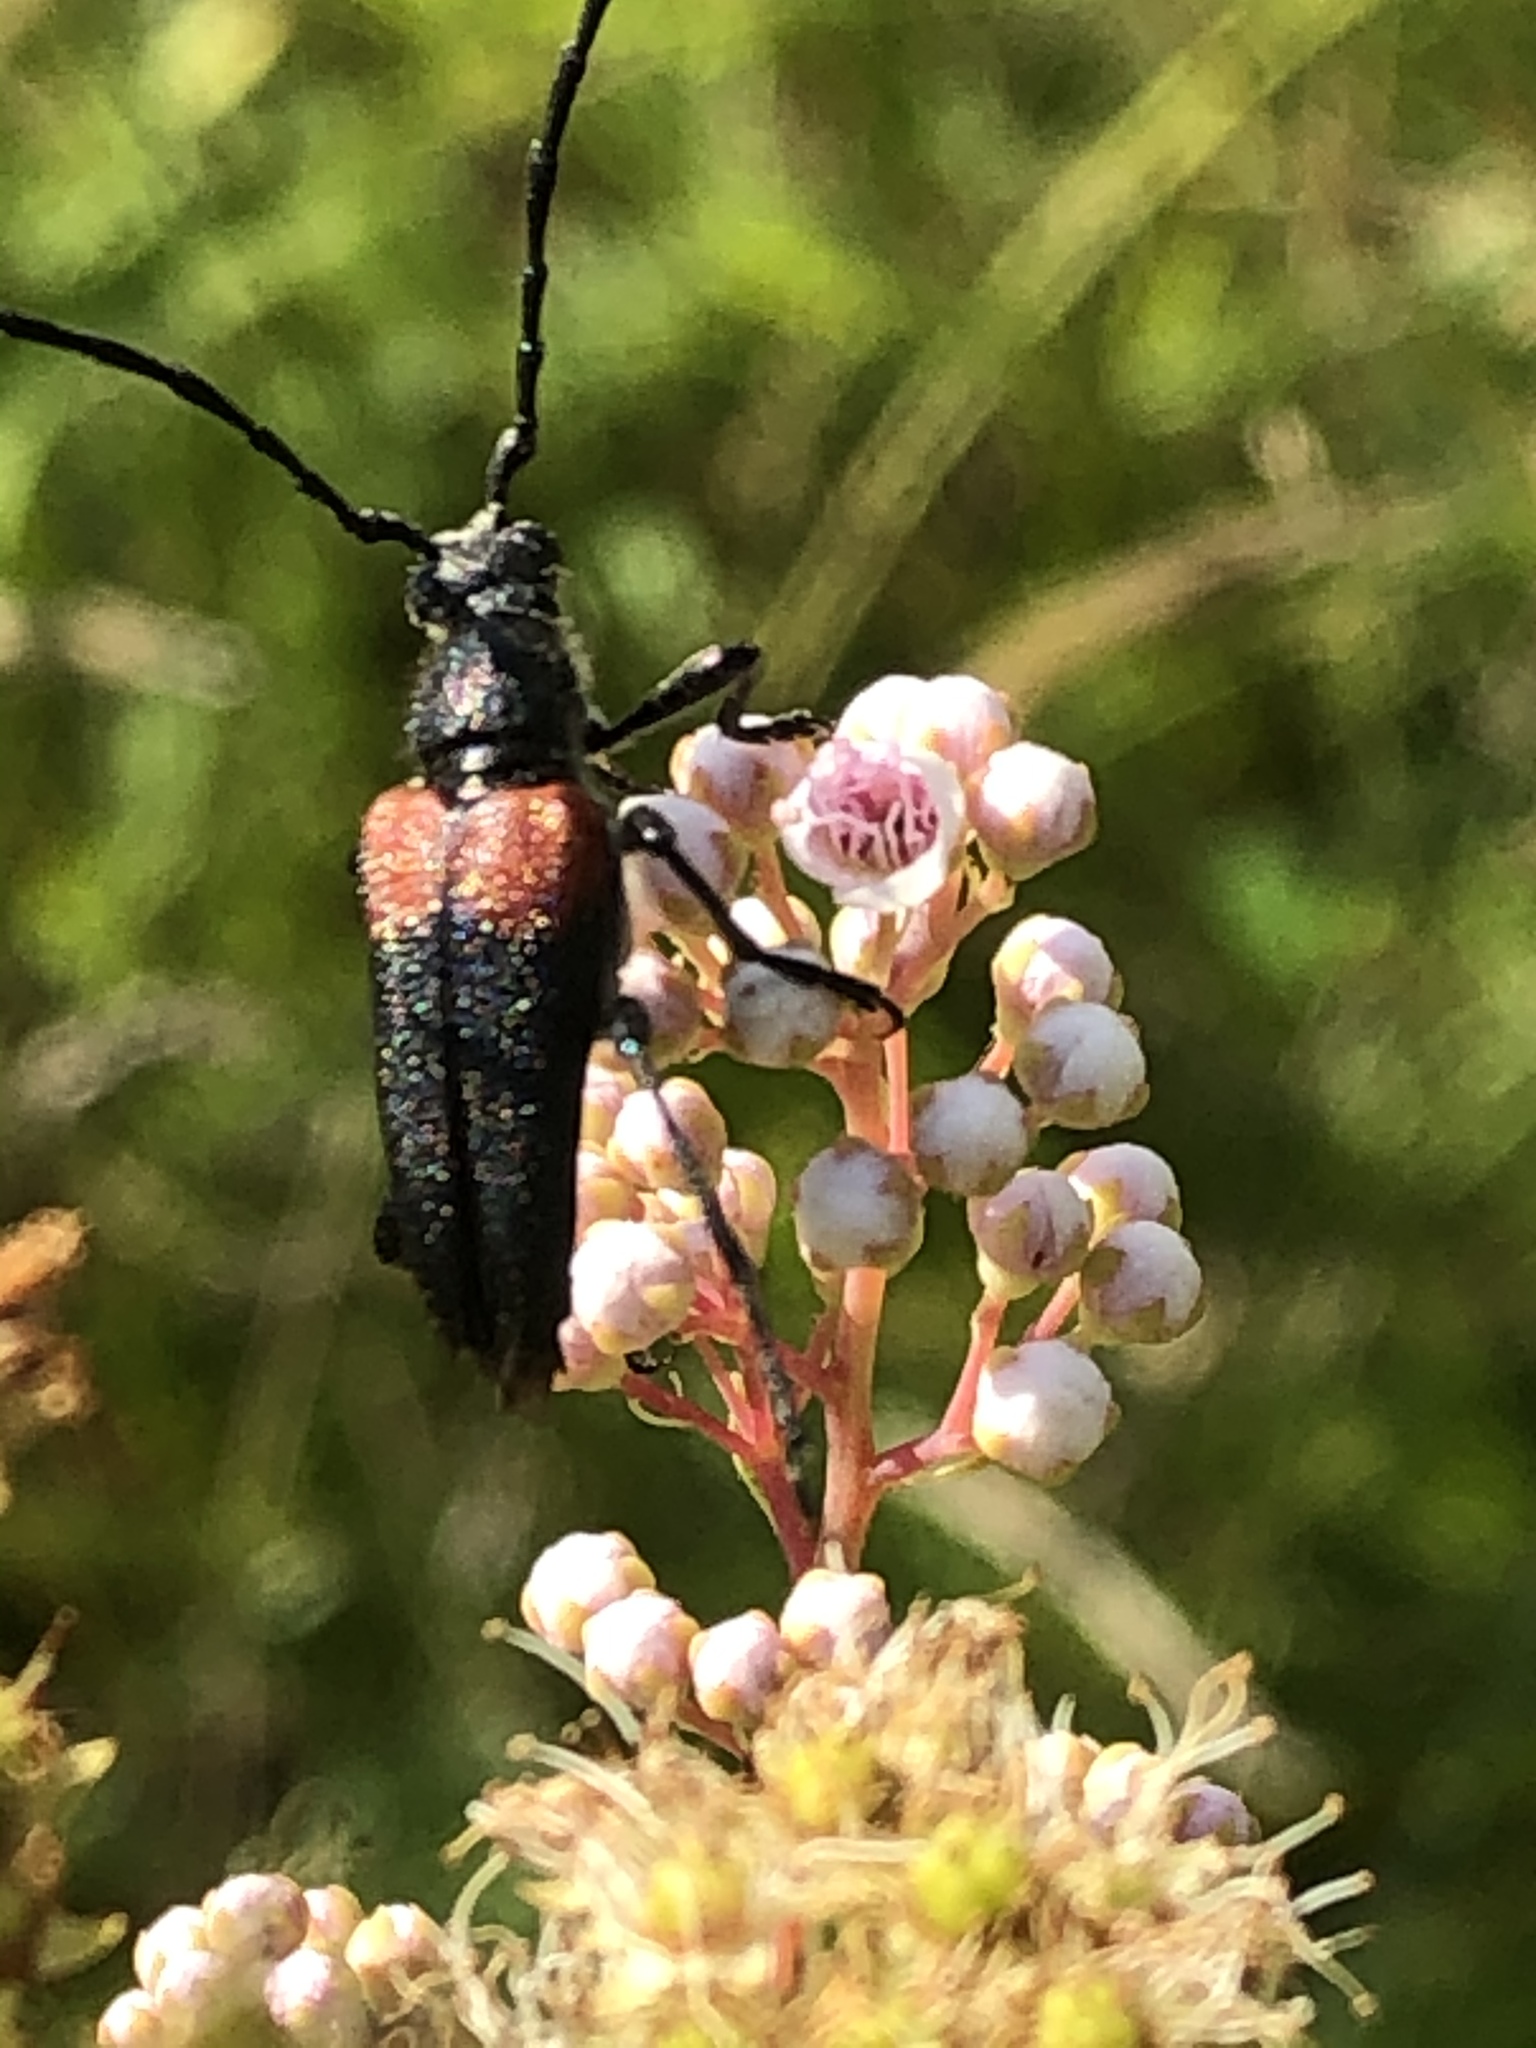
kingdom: Animalia
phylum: Arthropoda
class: Insecta
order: Coleoptera
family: Cerambycidae
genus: Stictoleptura
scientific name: Stictoleptura canadensis
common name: Red-shouldered pine borer
